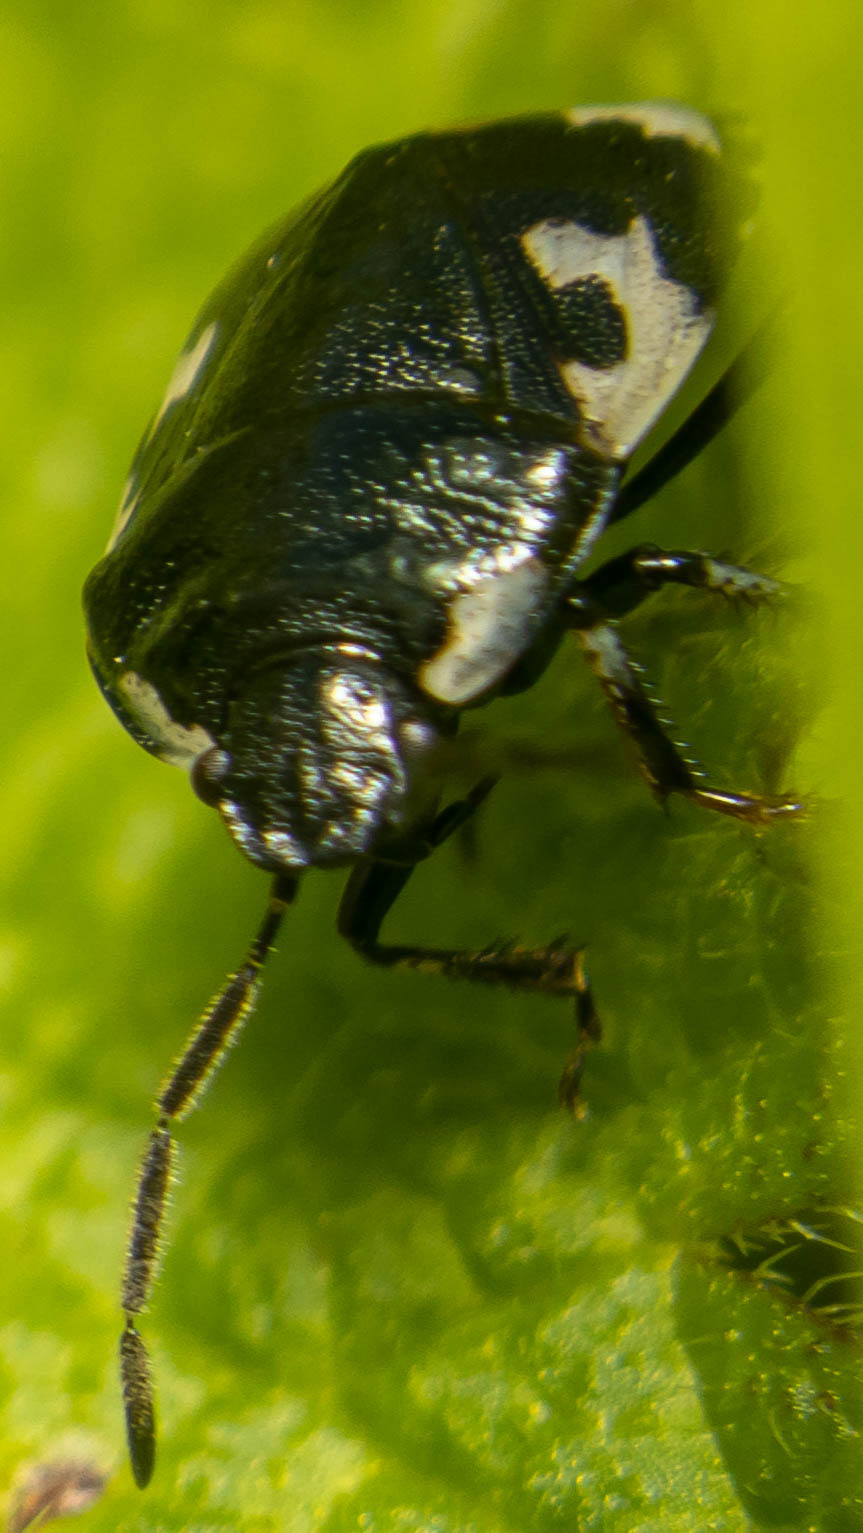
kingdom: Animalia
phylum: Arthropoda
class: Insecta
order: Hemiptera
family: Cydnidae
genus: Tritomegas
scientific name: Tritomegas bicolor
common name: Pied shieldbug
